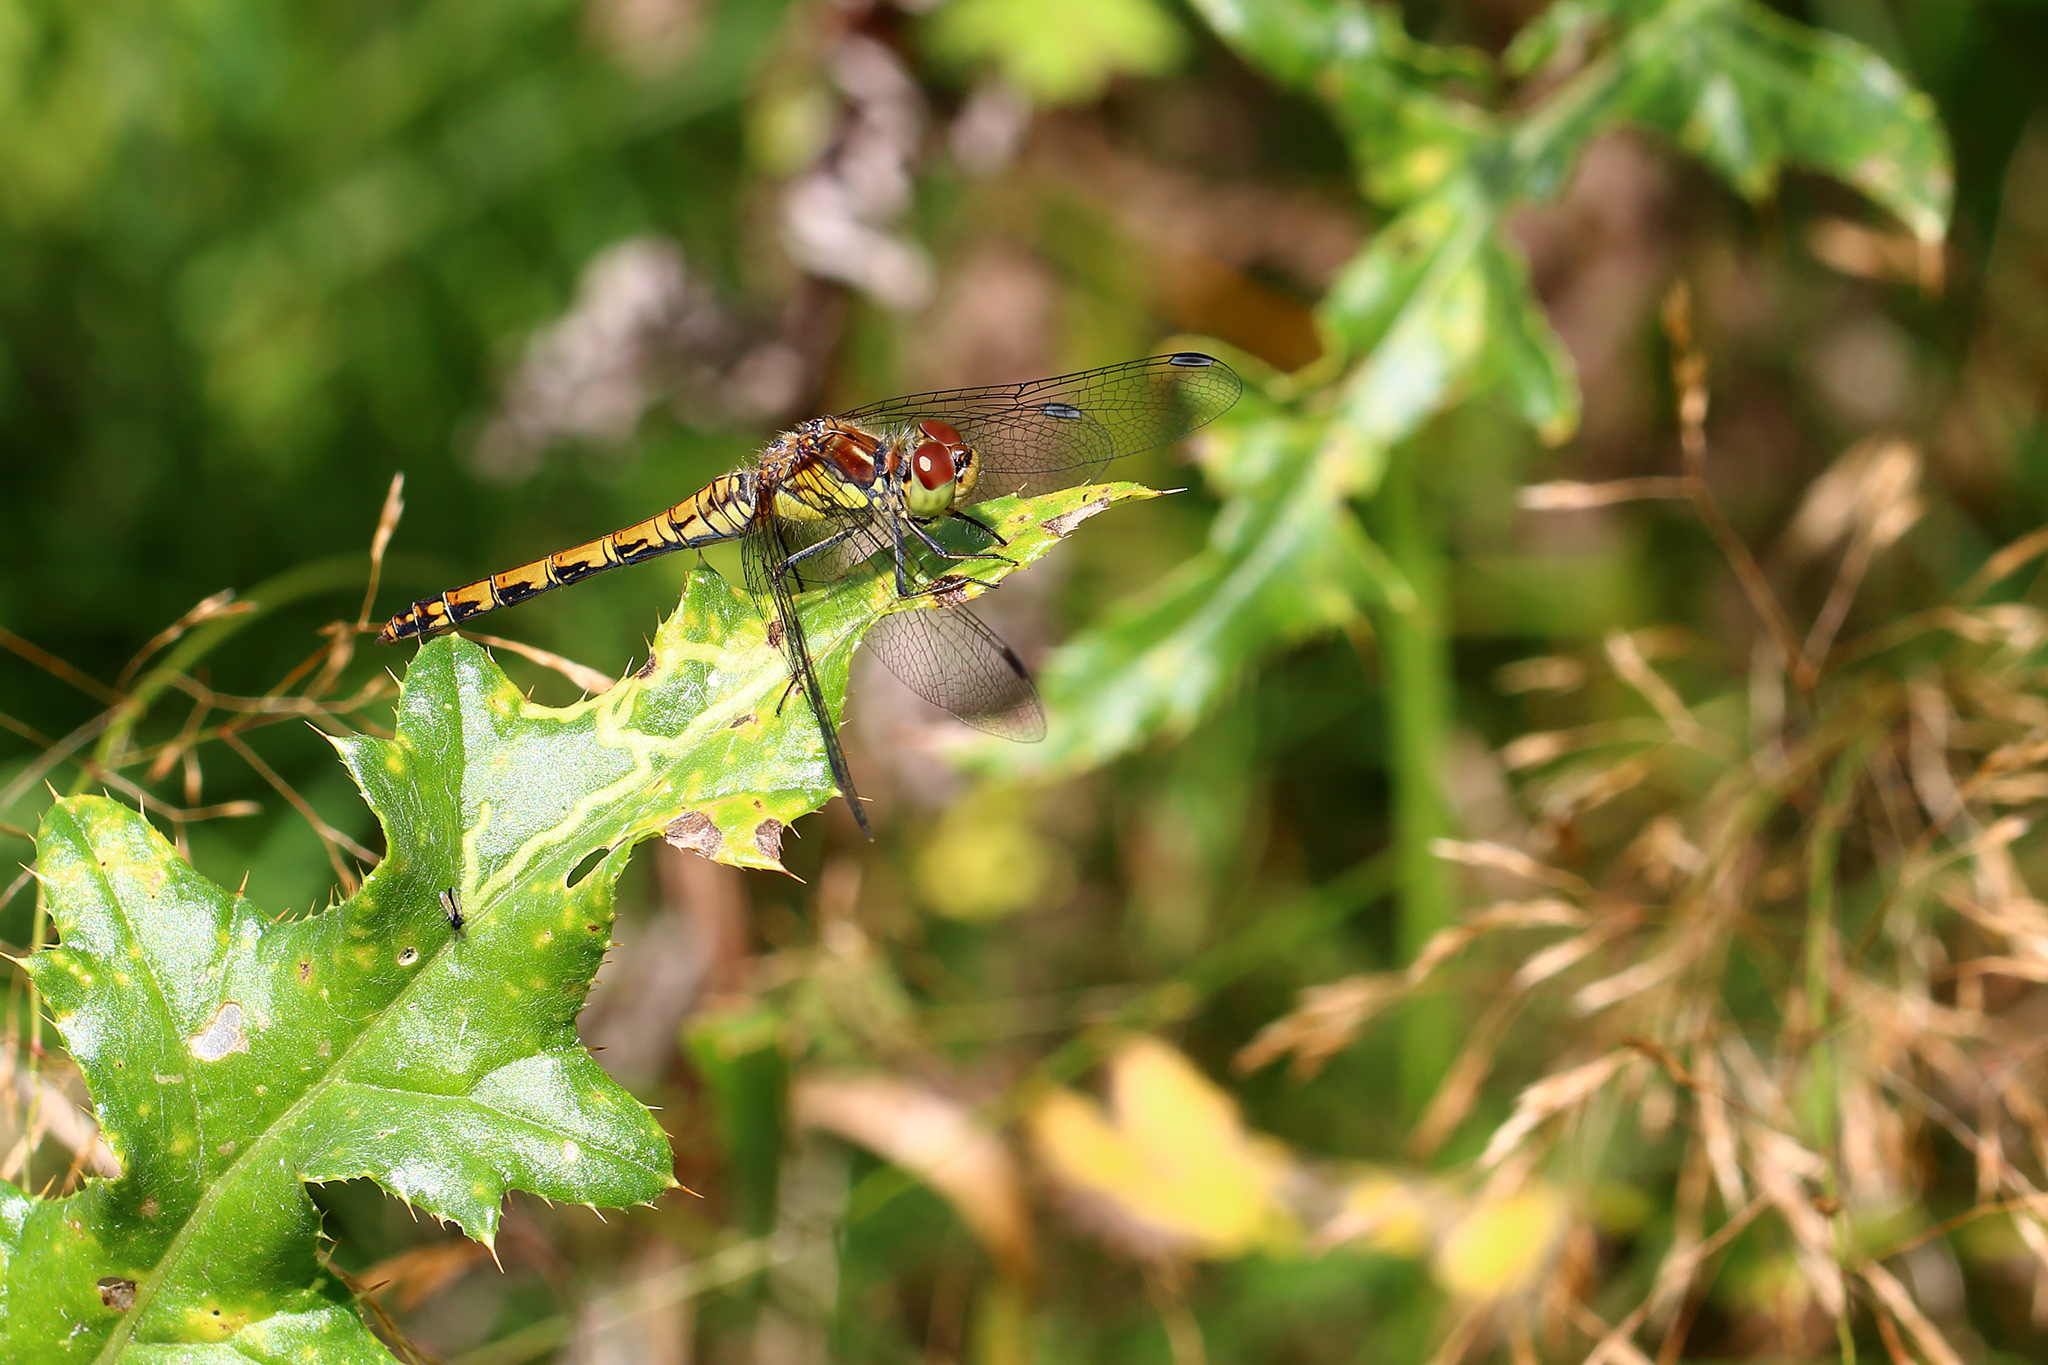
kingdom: Animalia
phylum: Arthropoda
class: Insecta
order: Odonata
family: Libellulidae
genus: Sympetrum
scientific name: Sympetrum vulgatum
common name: Vagrant darter
